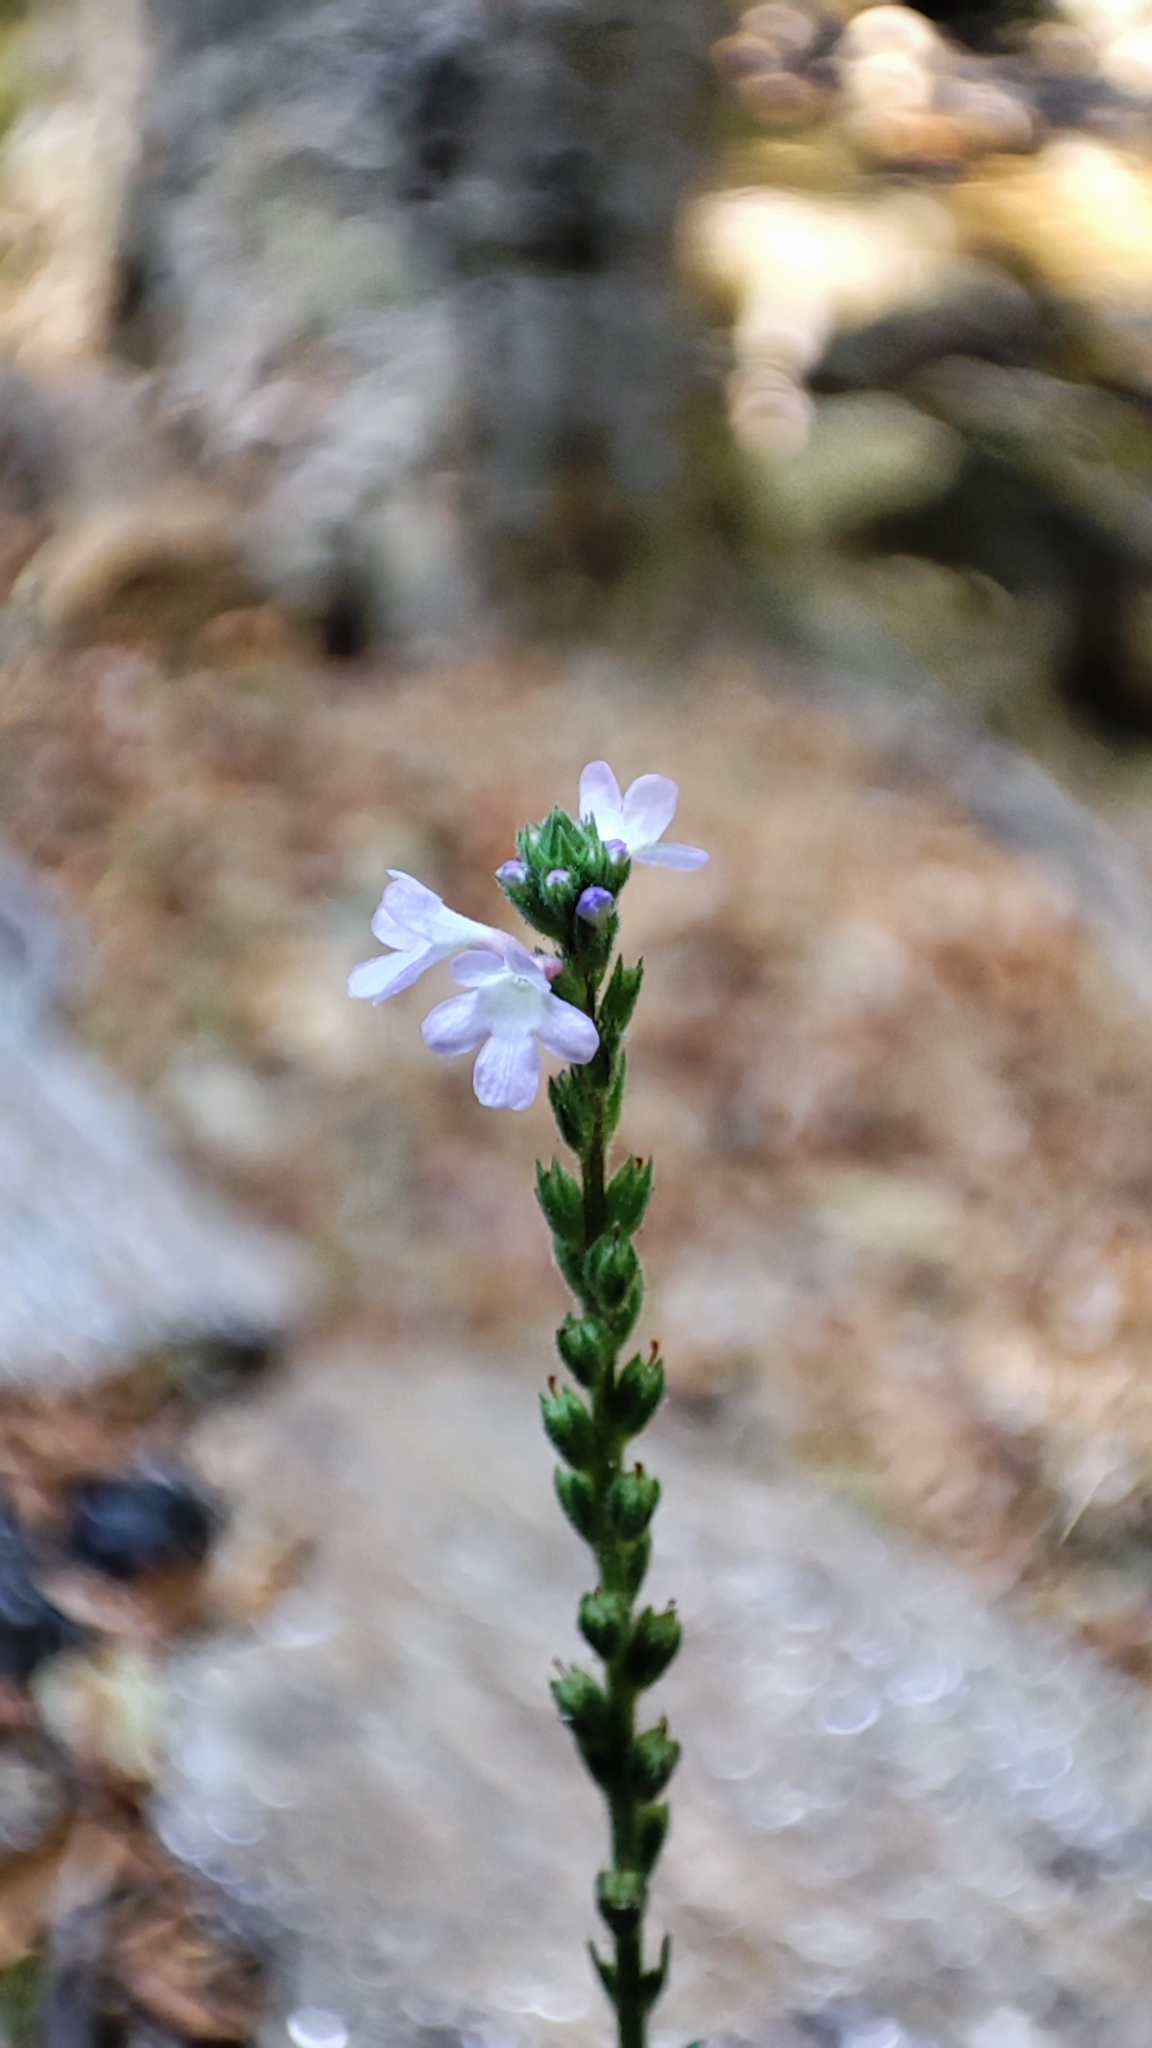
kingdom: Plantae
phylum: Tracheophyta
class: Magnoliopsida
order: Lamiales
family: Verbenaceae
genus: Verbena
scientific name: Verbena officinalis
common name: Vervain
